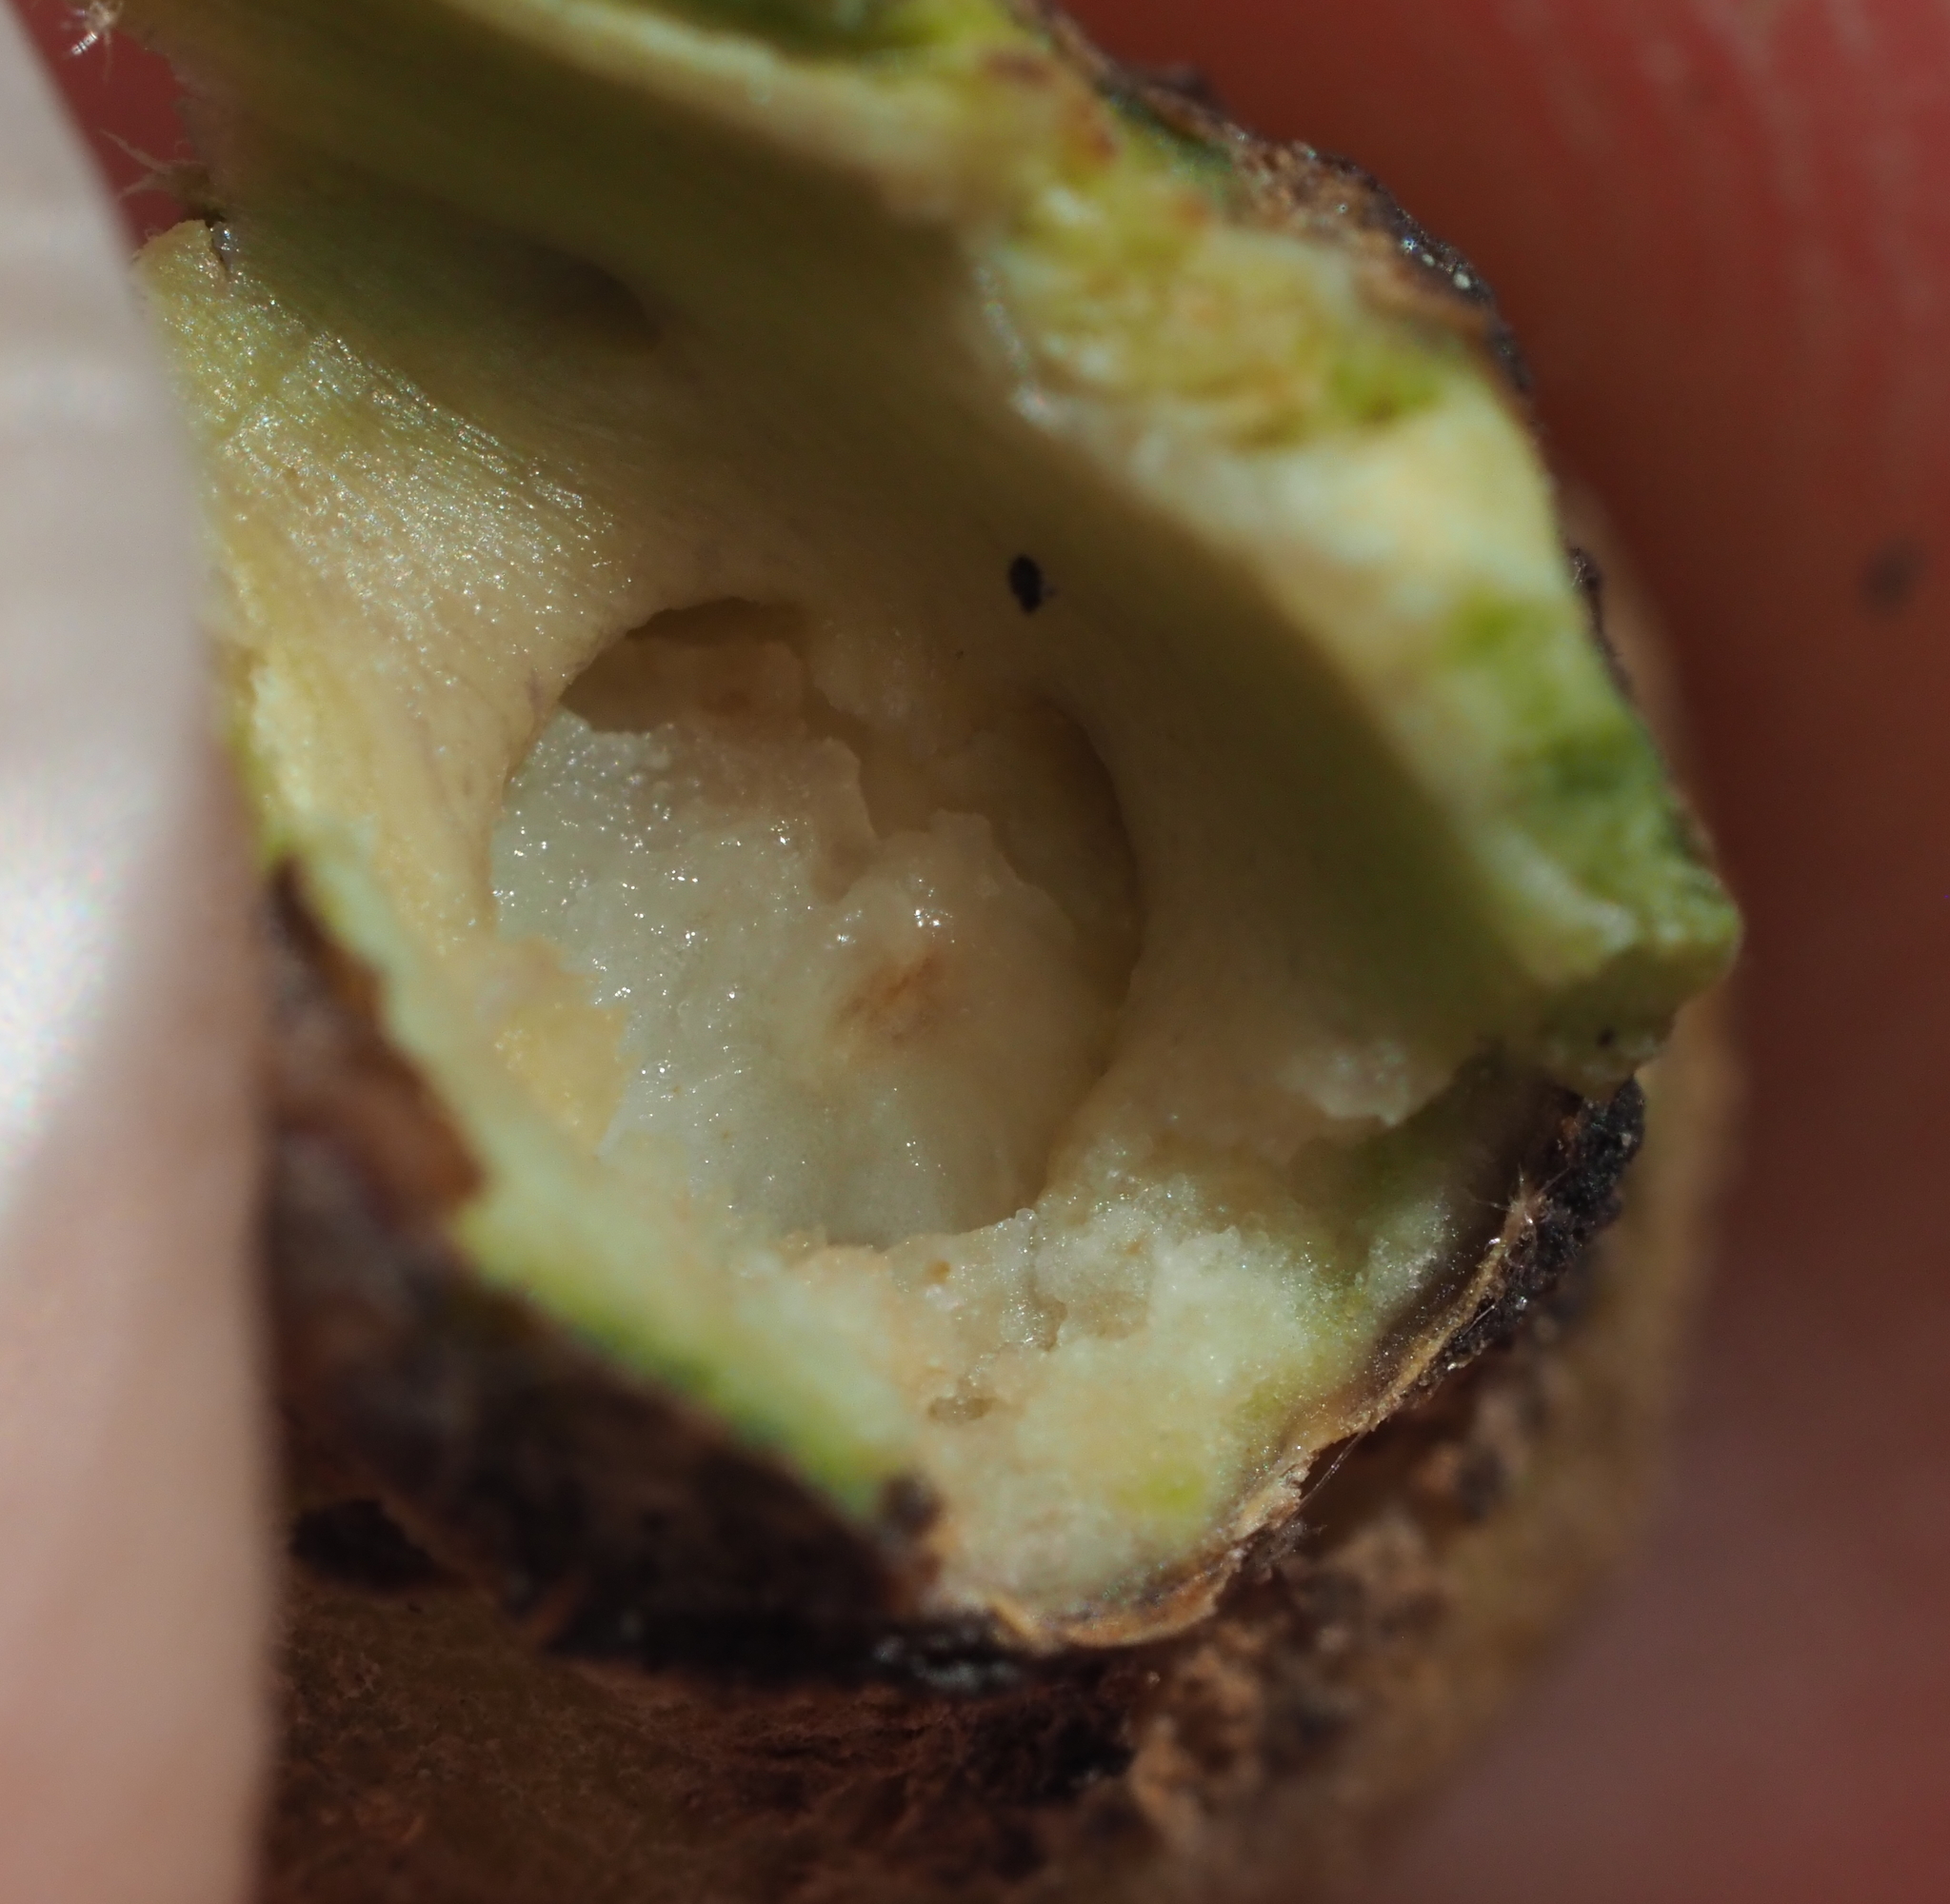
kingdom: Animalia
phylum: Arthropoda
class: Insecta
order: Hymenoptera
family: Cynipidae
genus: Callirhytis
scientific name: Callirhytis
